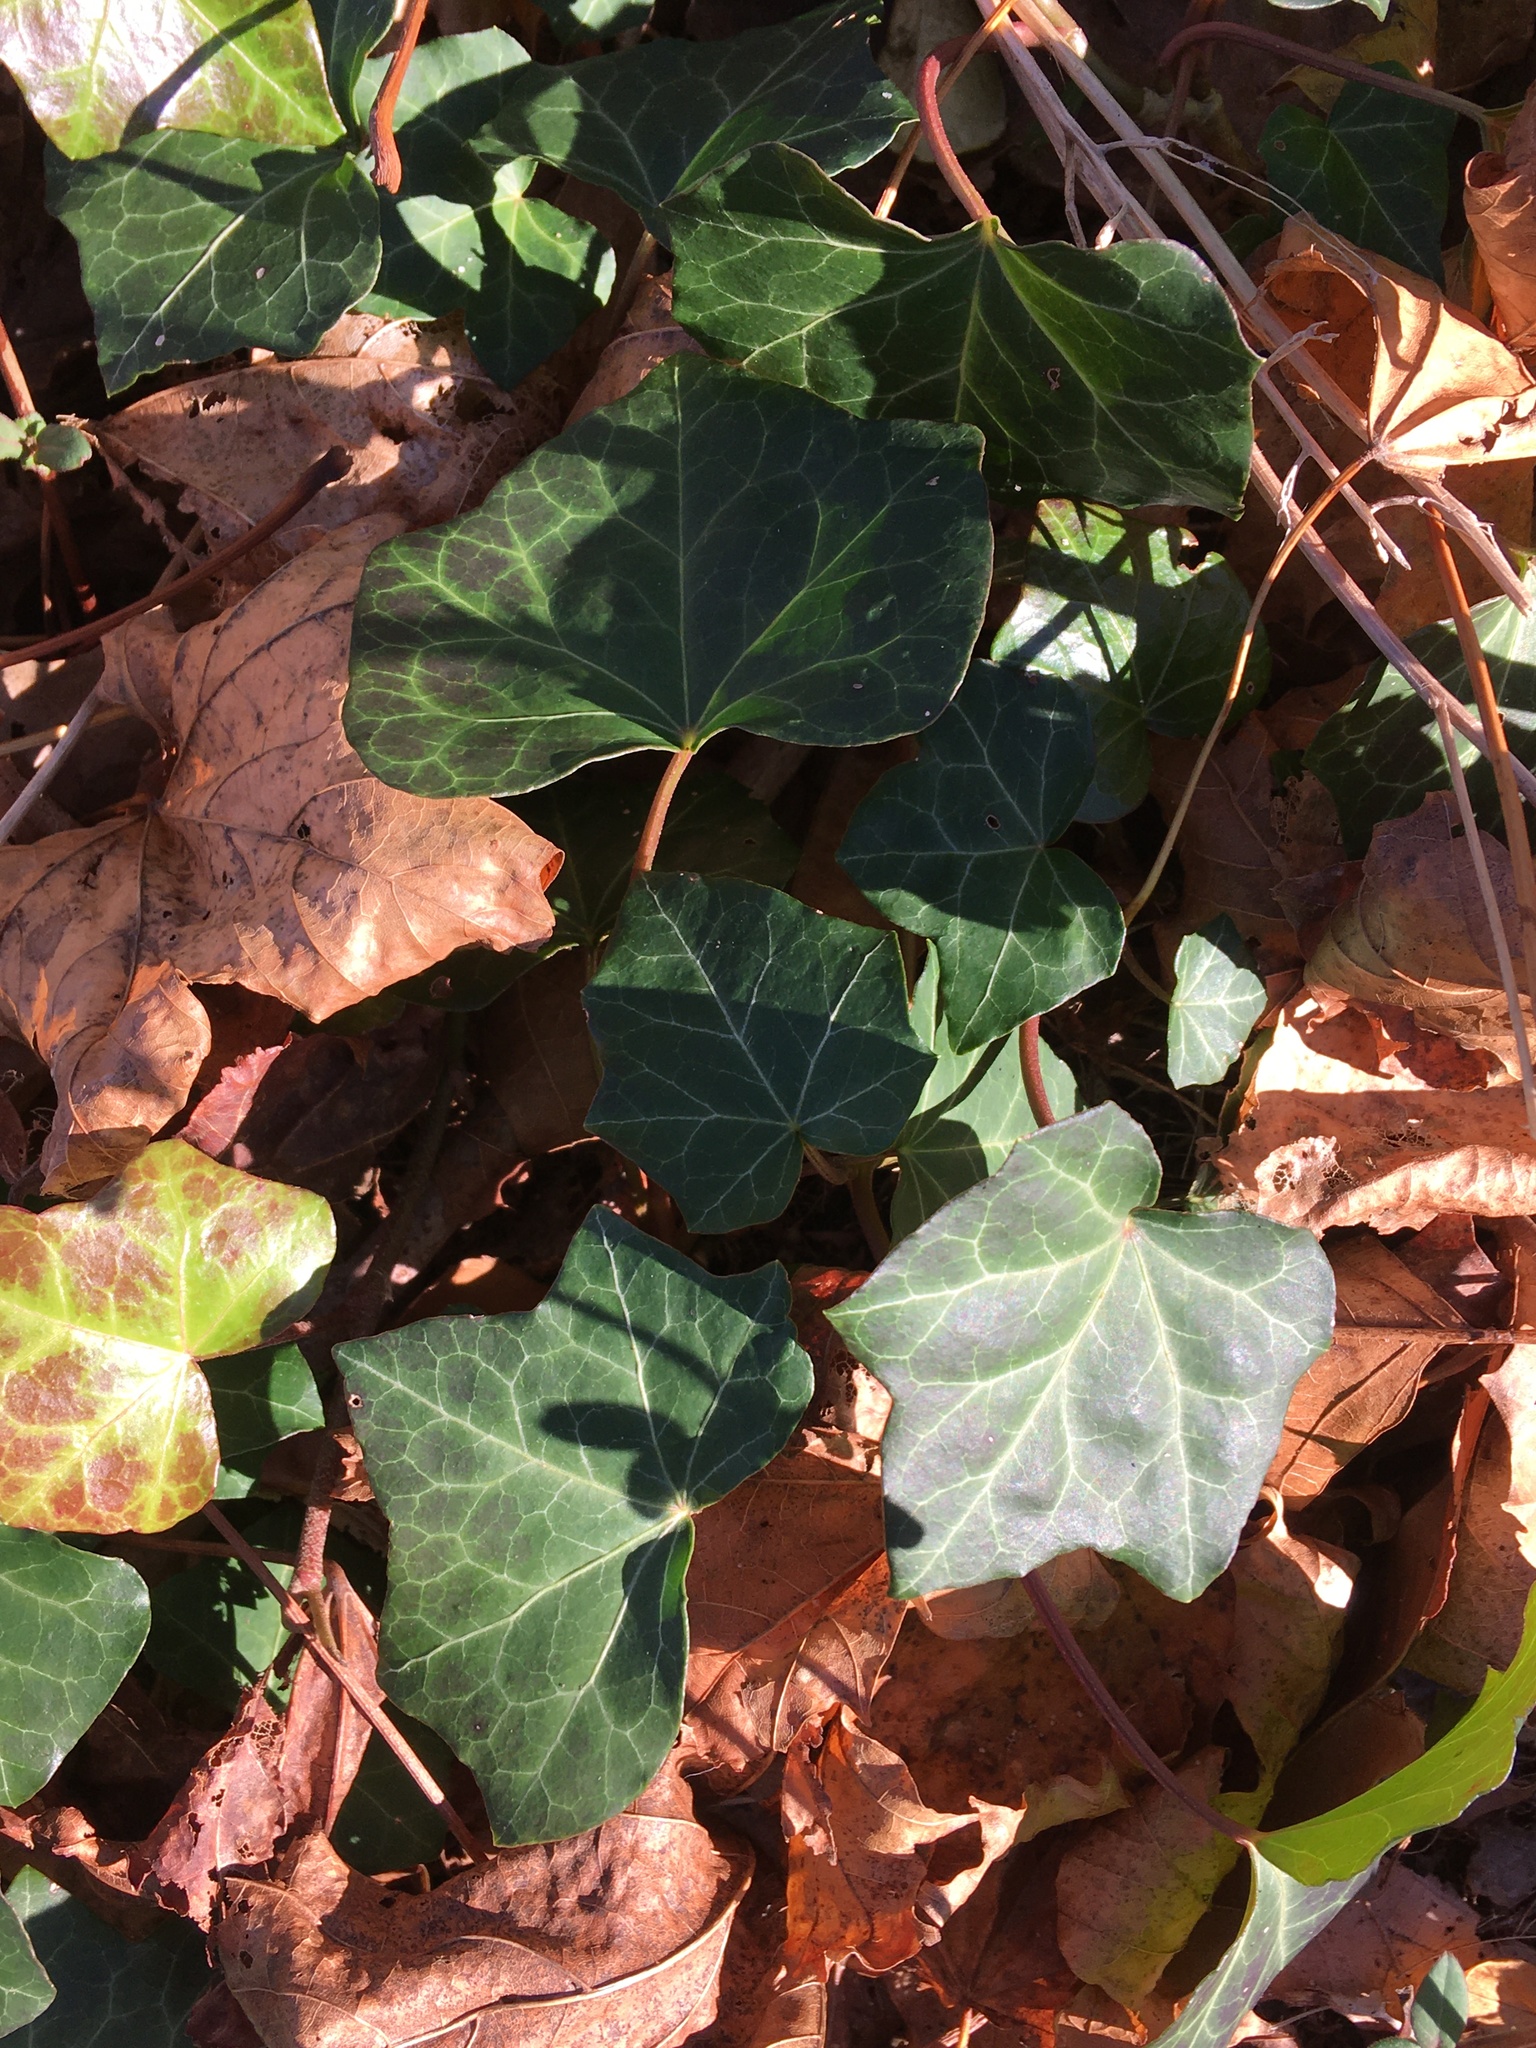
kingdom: Plantae
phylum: Tracheophyta
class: Magnoliopsida
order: Apiales
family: Araliaceae
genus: Hedera
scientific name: Hedera helix
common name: Ivy
